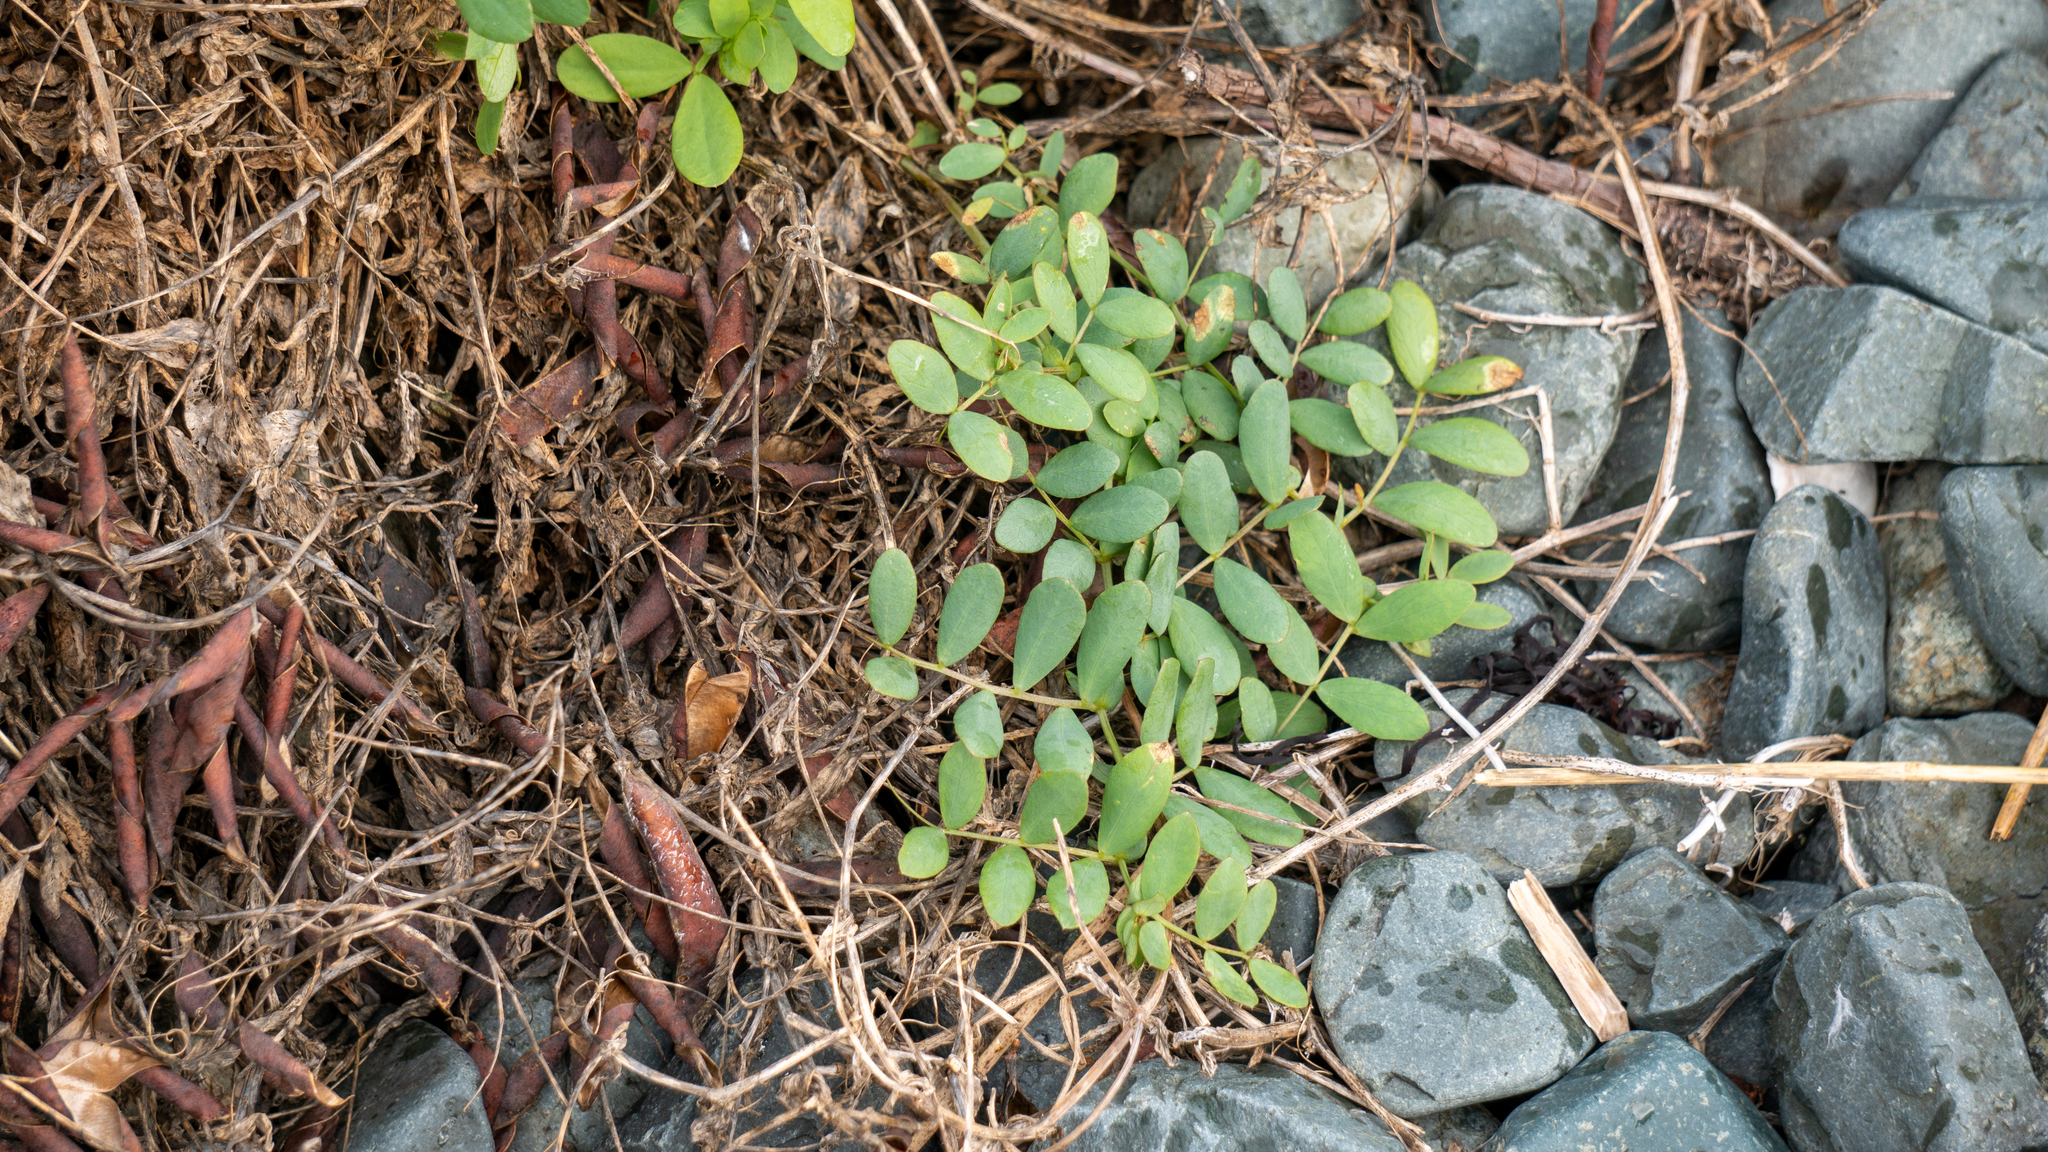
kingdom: Plantae
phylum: Tracheophyta
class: Magnoliopsida
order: Fabales
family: Fabaceae
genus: Lathyrus
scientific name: Lathyrus japonicus
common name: Sea pea
